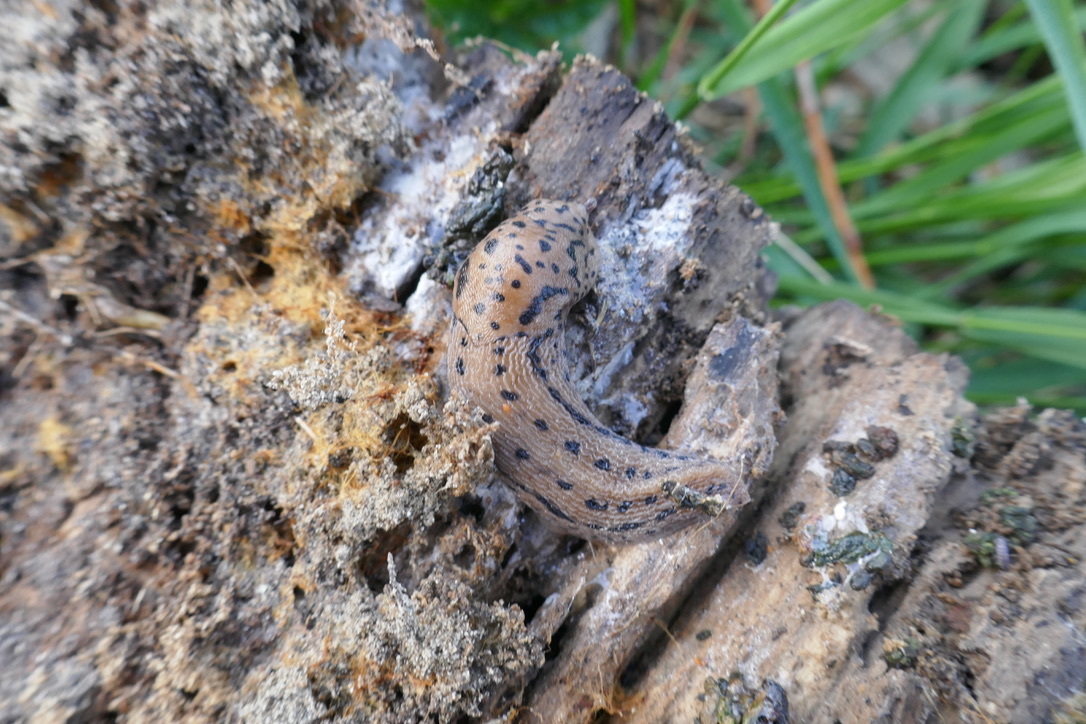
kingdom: Animalia
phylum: Mollusca
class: Gastropoda
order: Stylommatophora
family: Limacidae
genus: Limax
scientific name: Limax maximus
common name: Great grey slug
